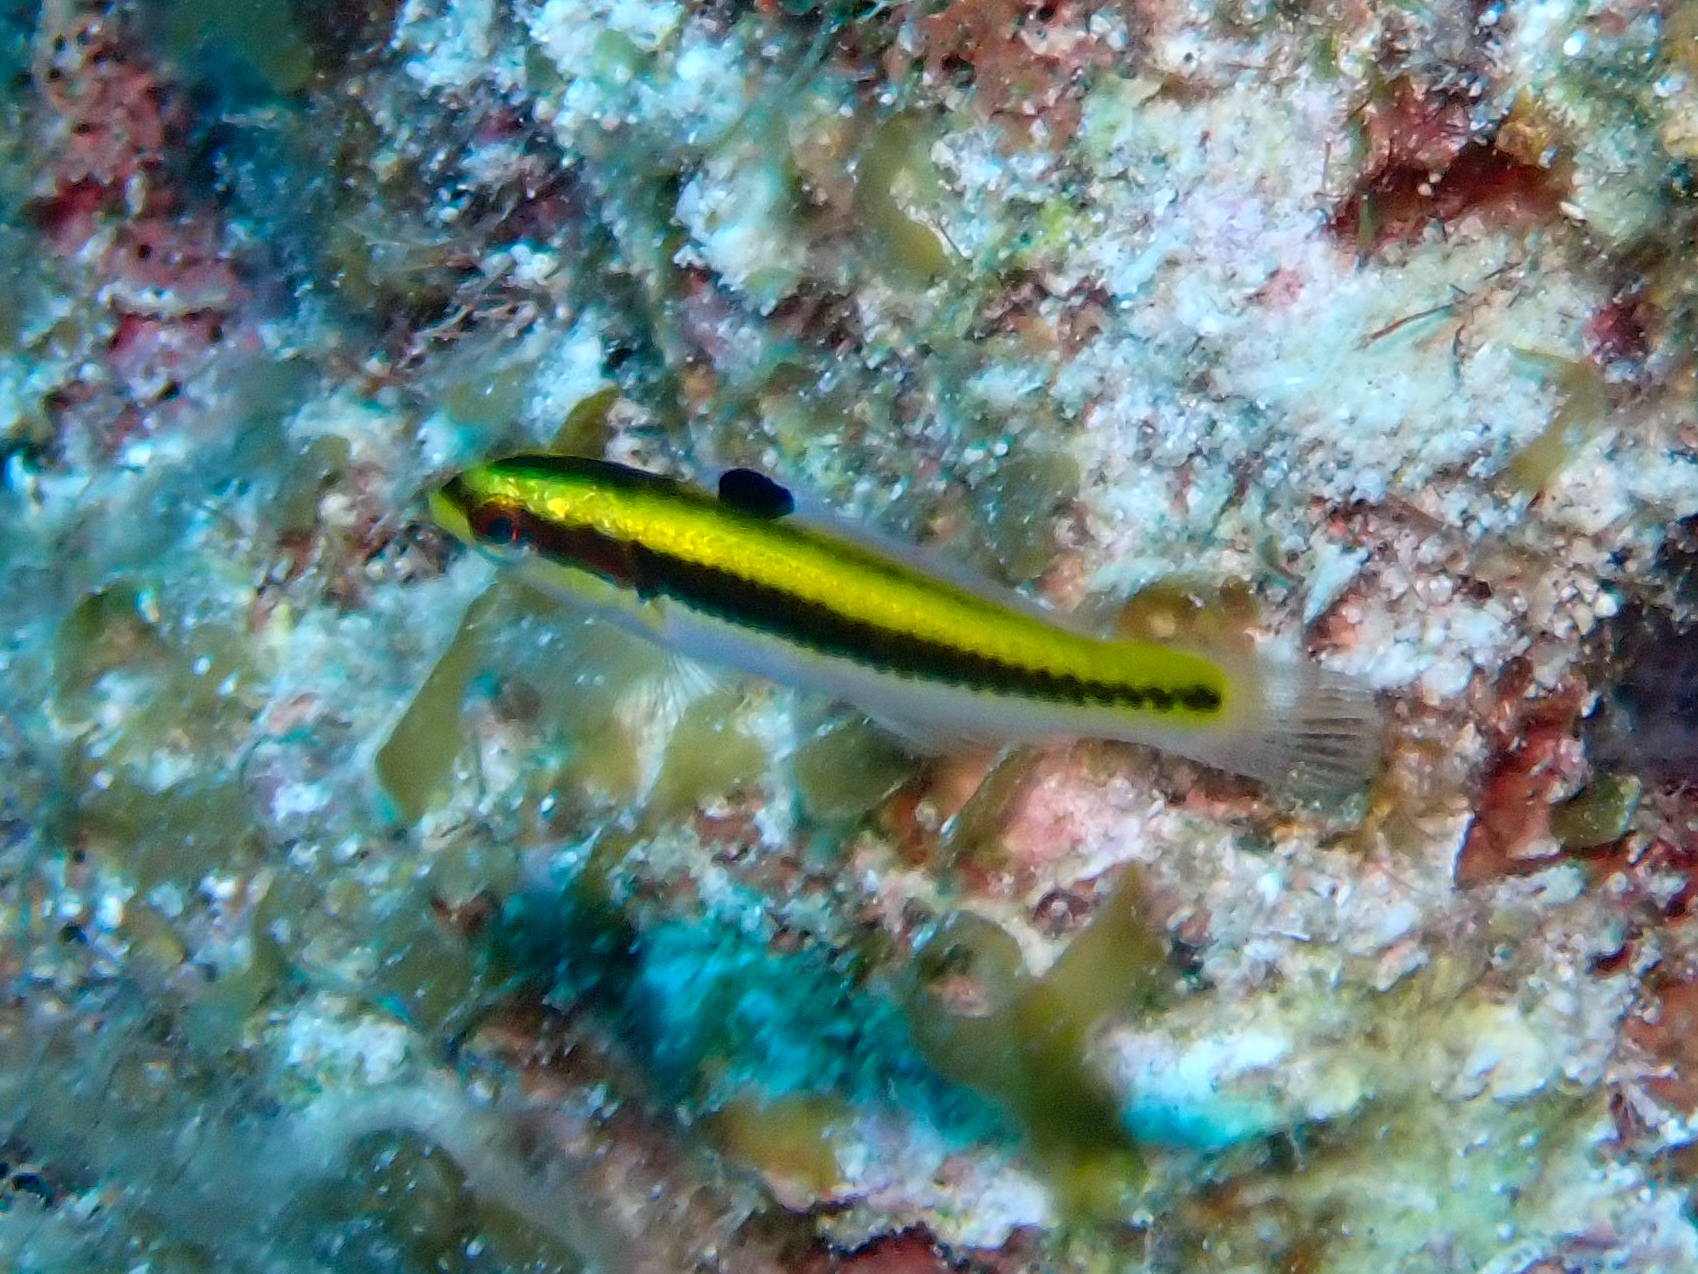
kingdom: Animalia
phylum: Chordata
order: Perciformes
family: Labridae
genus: Thalassoma
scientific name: Thalassoma bifasciatum
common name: Bluehead wrasse
